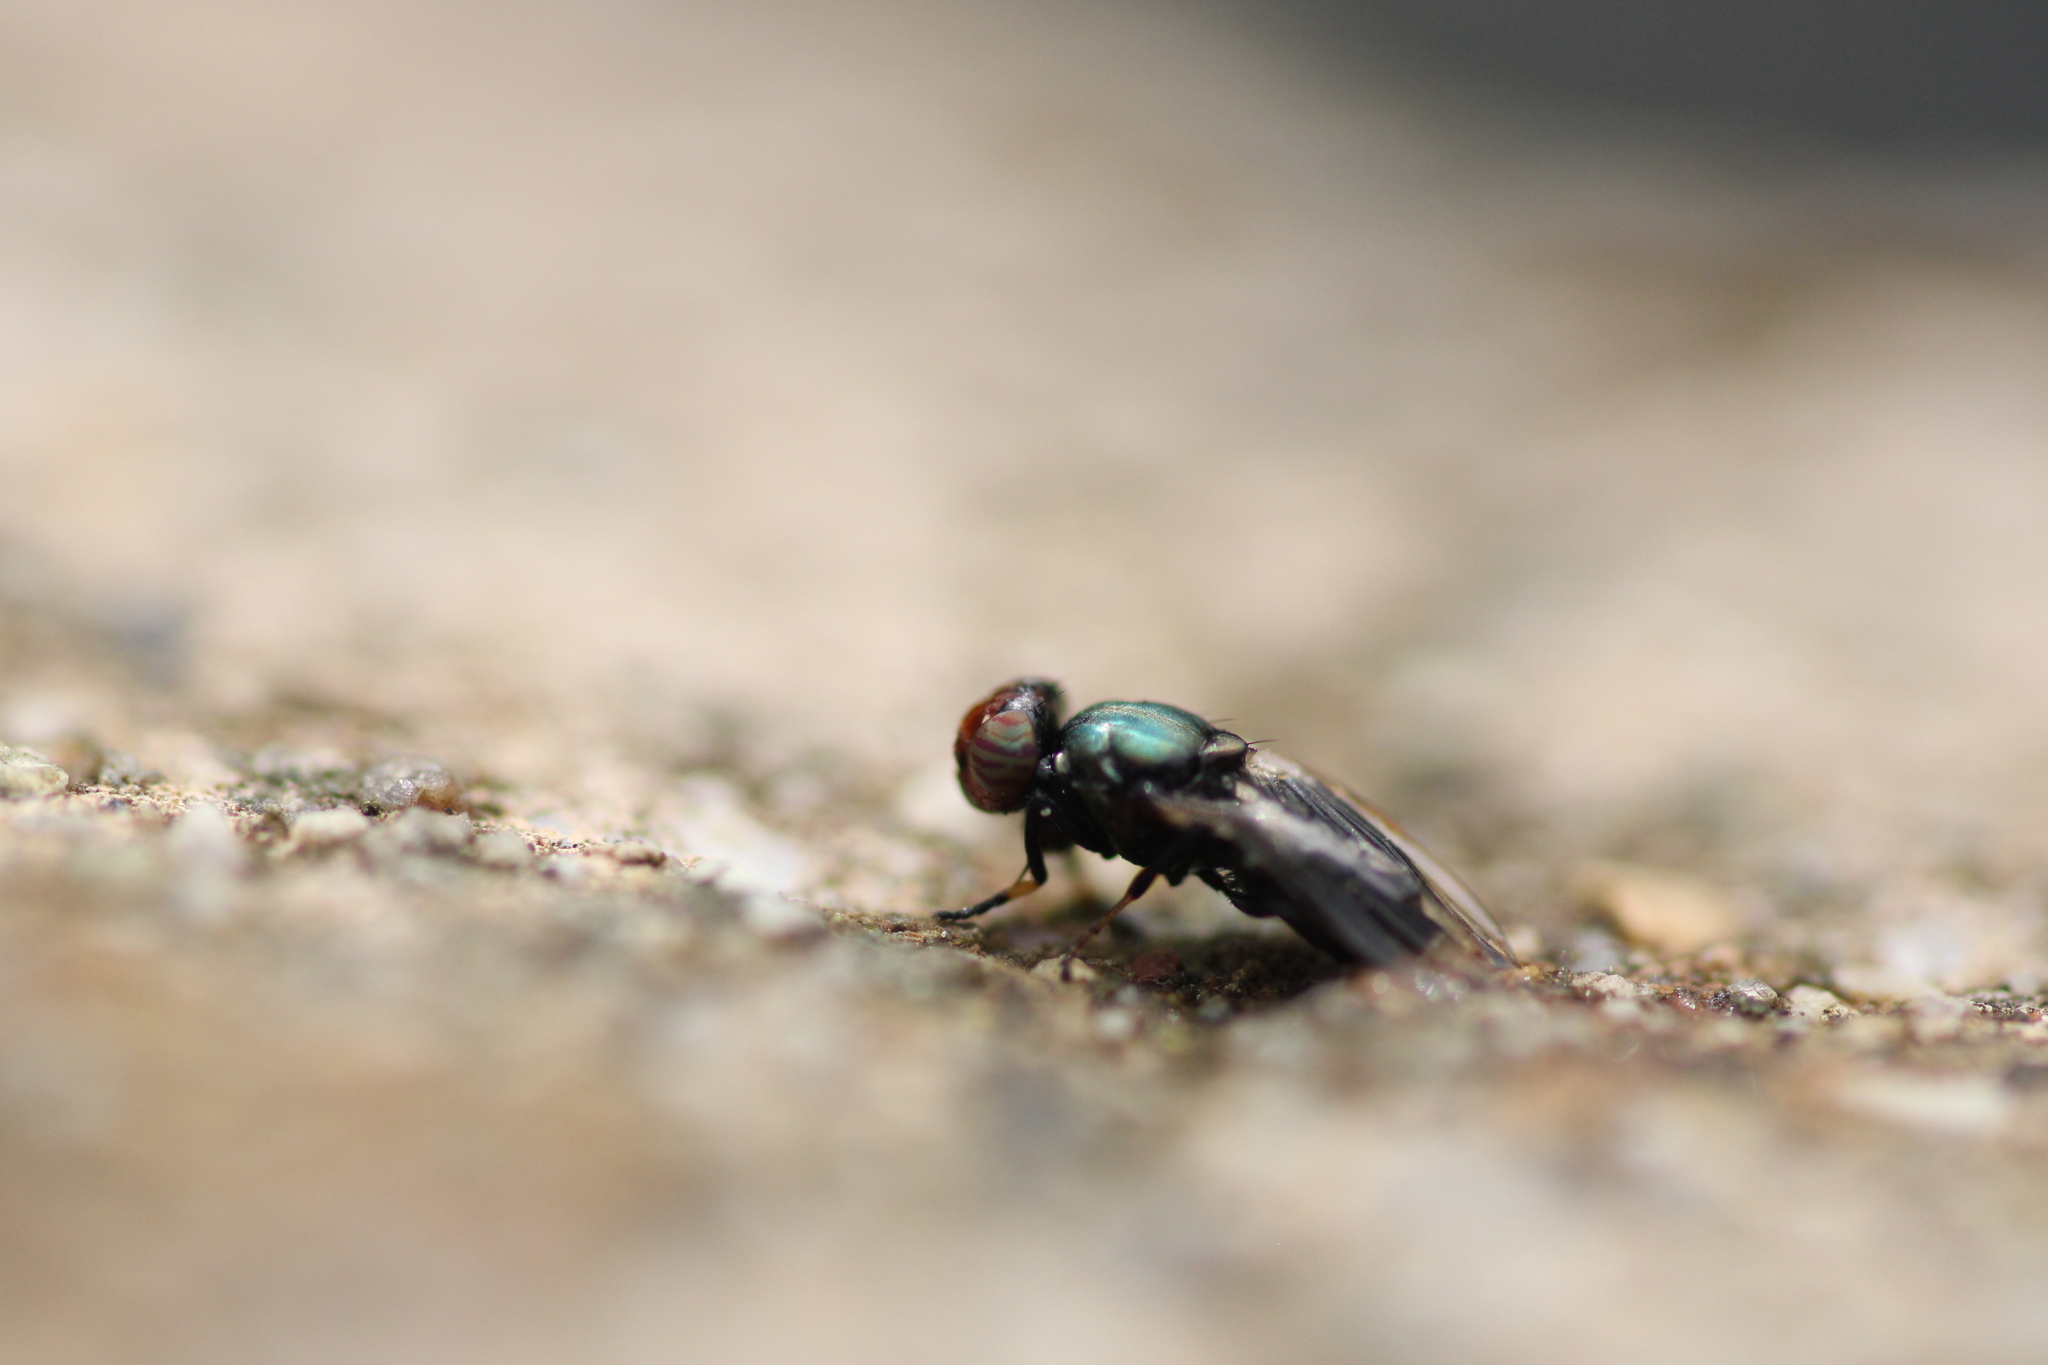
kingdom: Animalia
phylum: Arthropoda
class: Insecta
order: Diptera
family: Ulidiidae
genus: Physiphora
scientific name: Physiphora alceae
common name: Picture-winged fly
